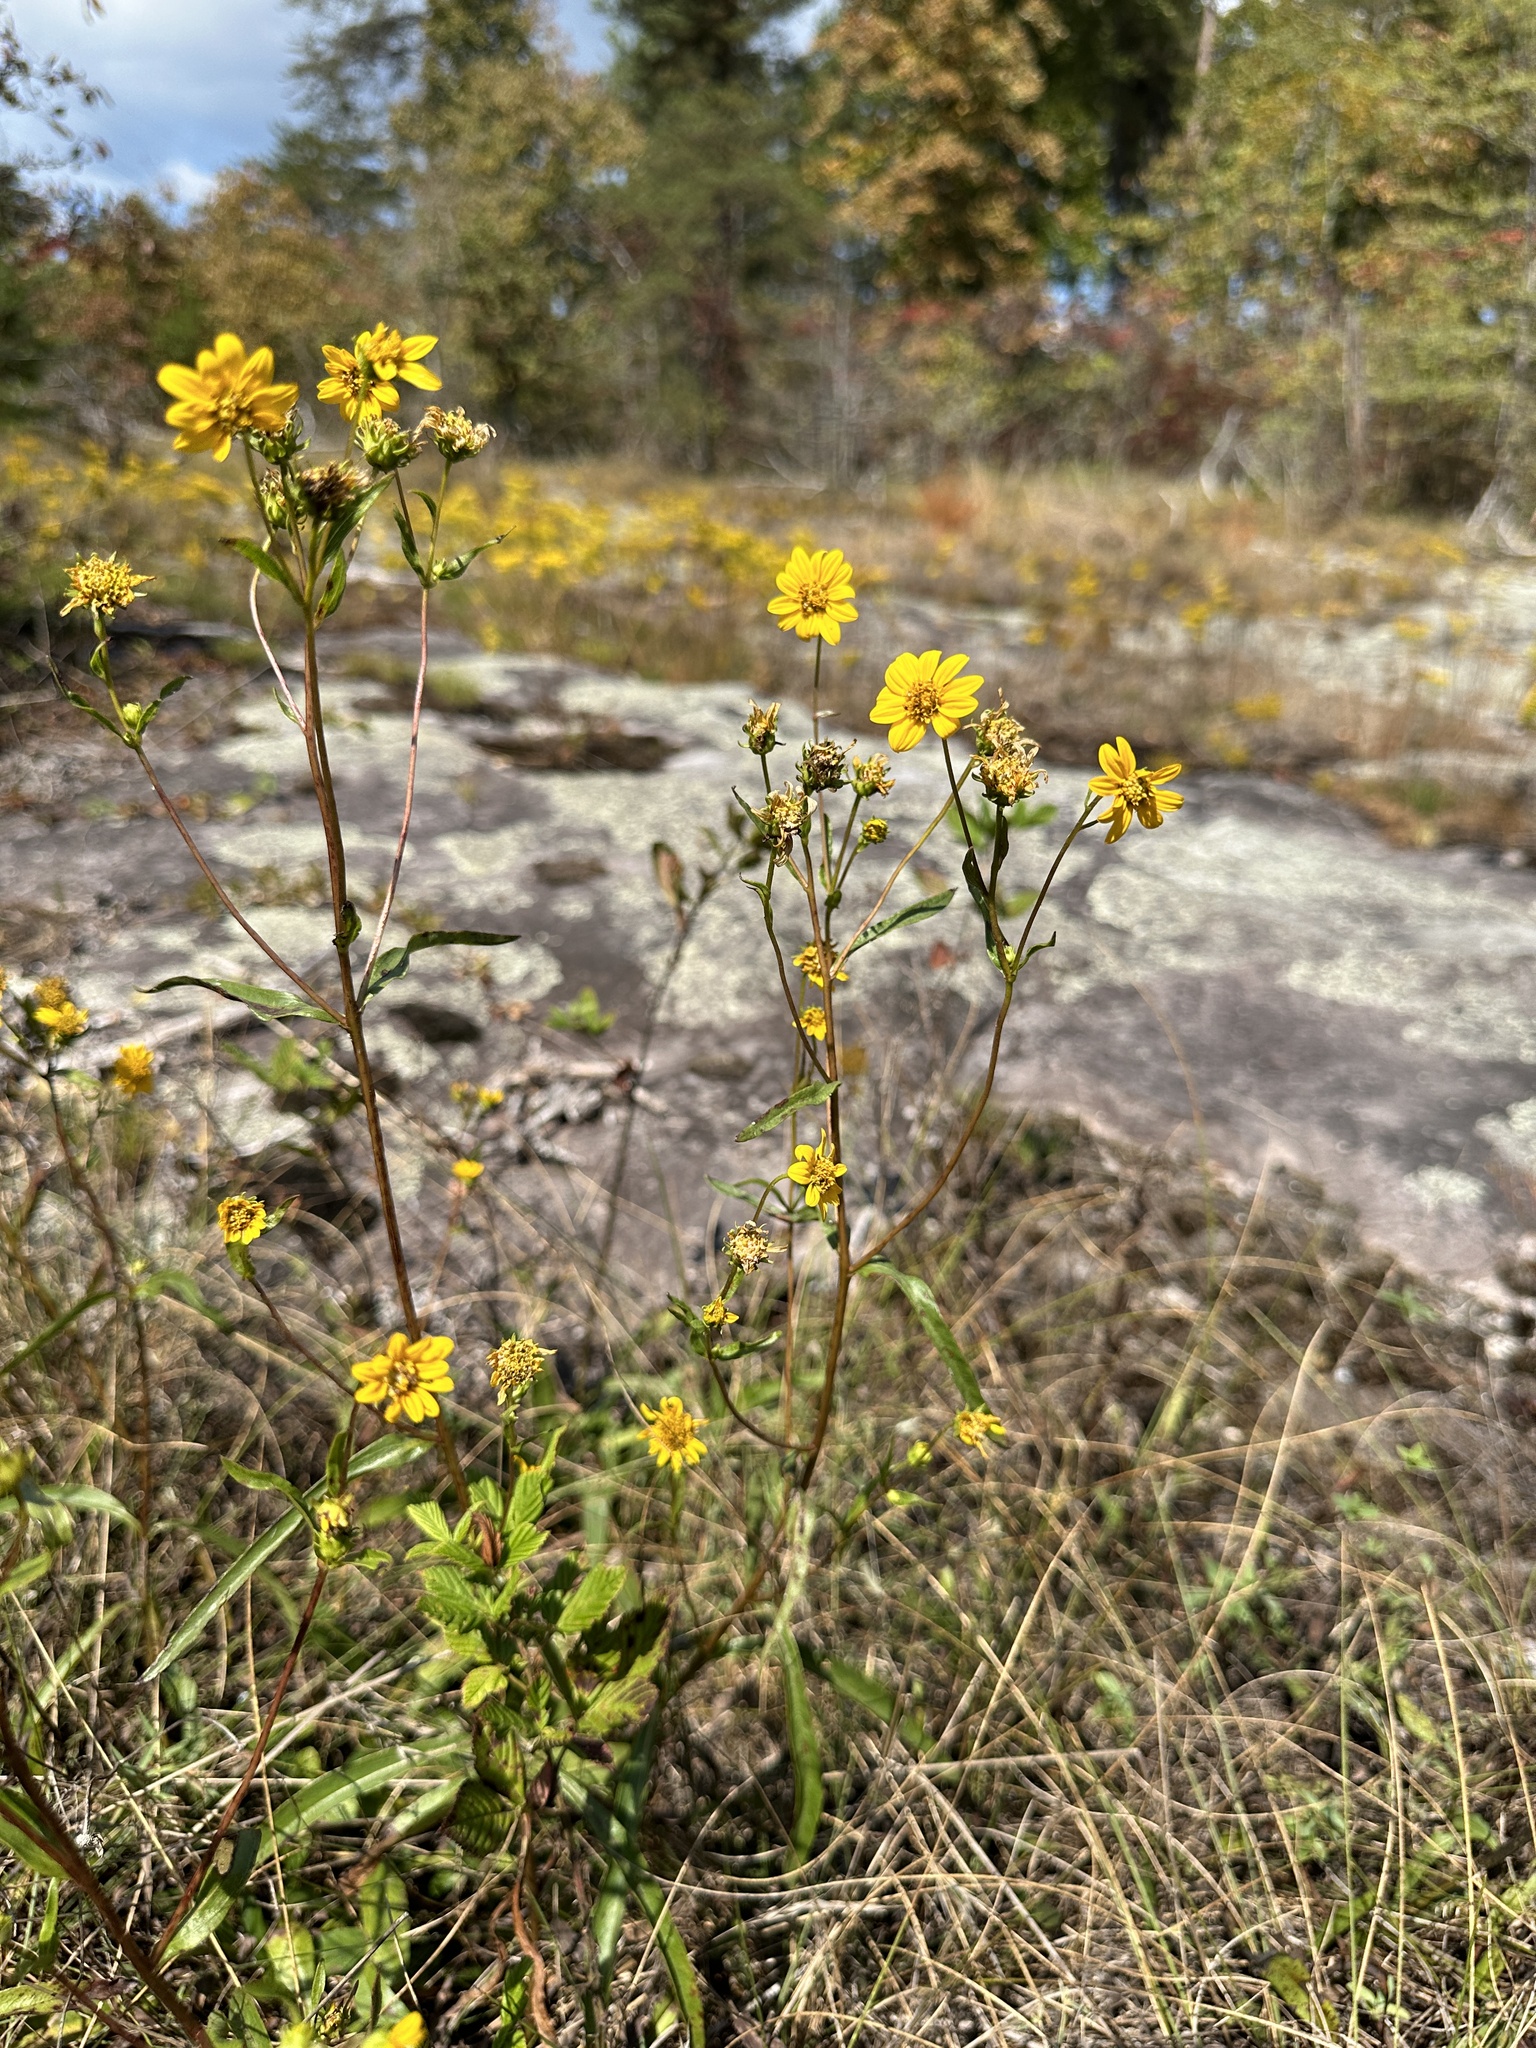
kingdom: Plantae
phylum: Tracheophyta
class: Magnoliopsida
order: Asterales
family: Asteraceae
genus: Helianthus
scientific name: Helianthus longifolius
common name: Longleaf sunflower
